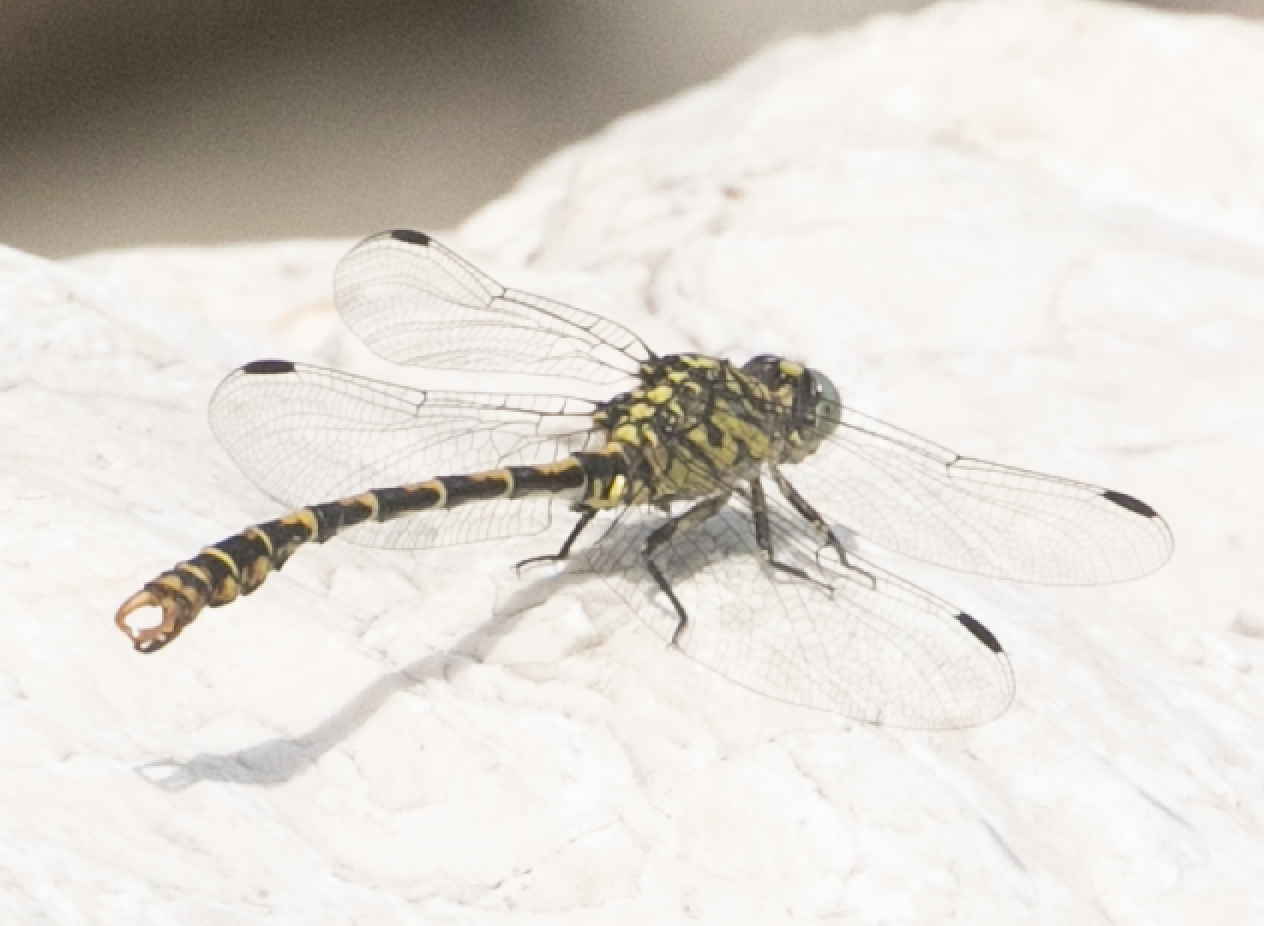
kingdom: Animalia
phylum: Arthropoda
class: Insecta
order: Odonata
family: Gomphidae
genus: Onychogomphus
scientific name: Onychogomphus forcipatus
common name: Small pincertail
